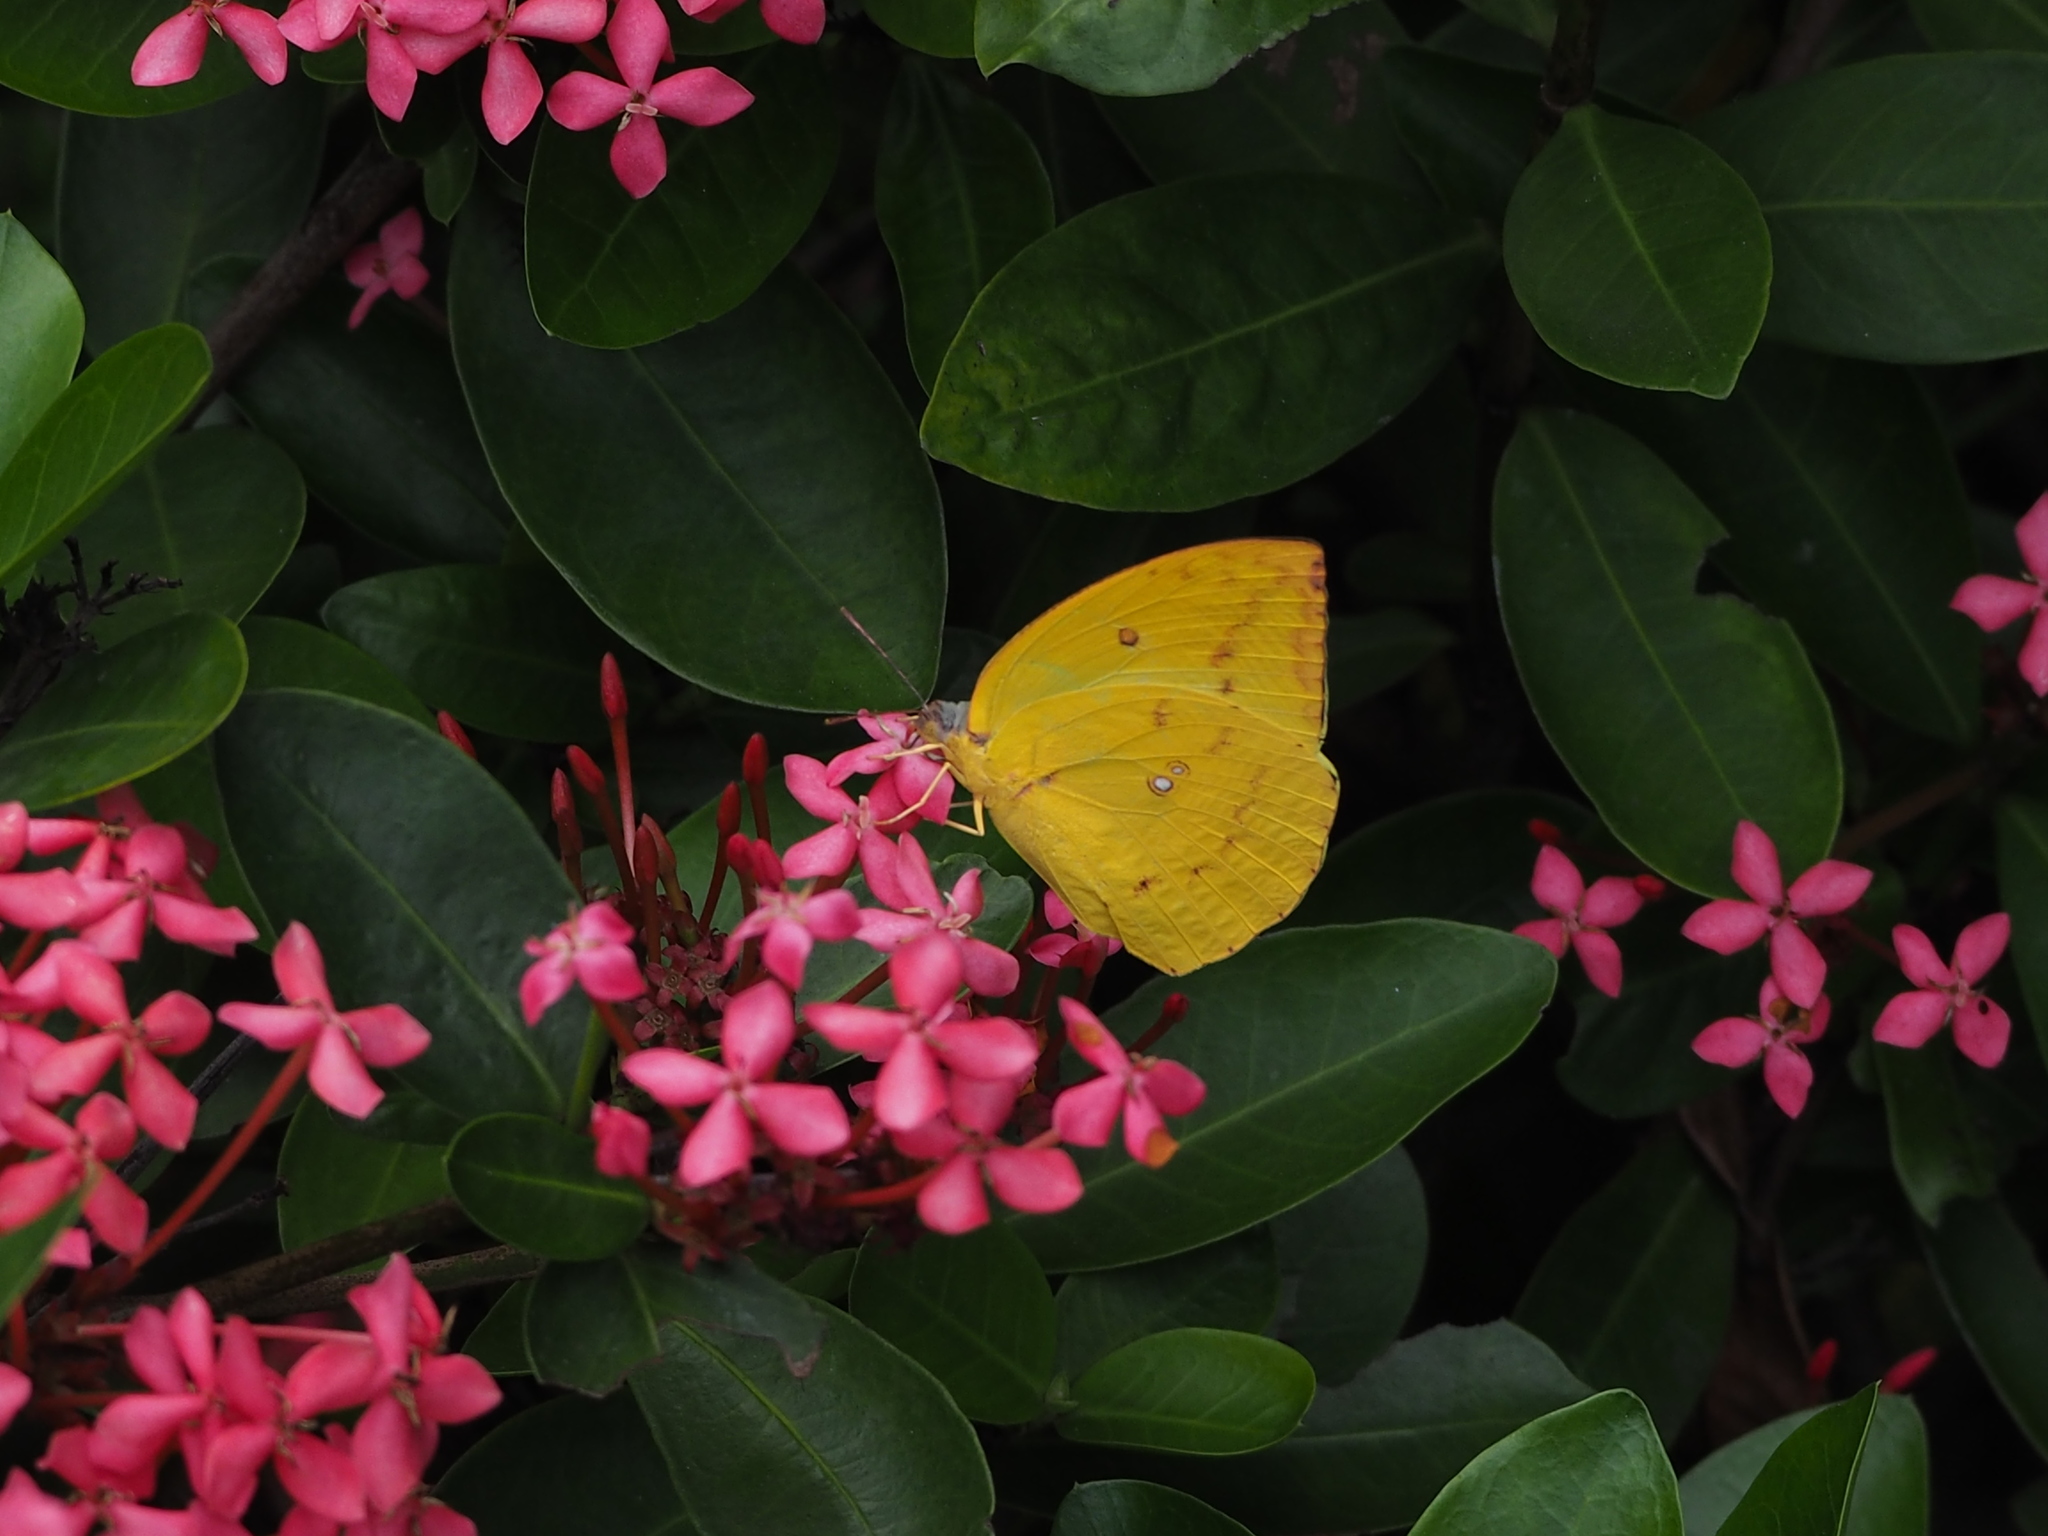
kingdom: Animalia
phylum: Arthropoda
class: Insecta
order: Lepidoptera
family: Pieridae
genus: Catopsilia
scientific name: Catopsilia pomona
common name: Common emigrant
